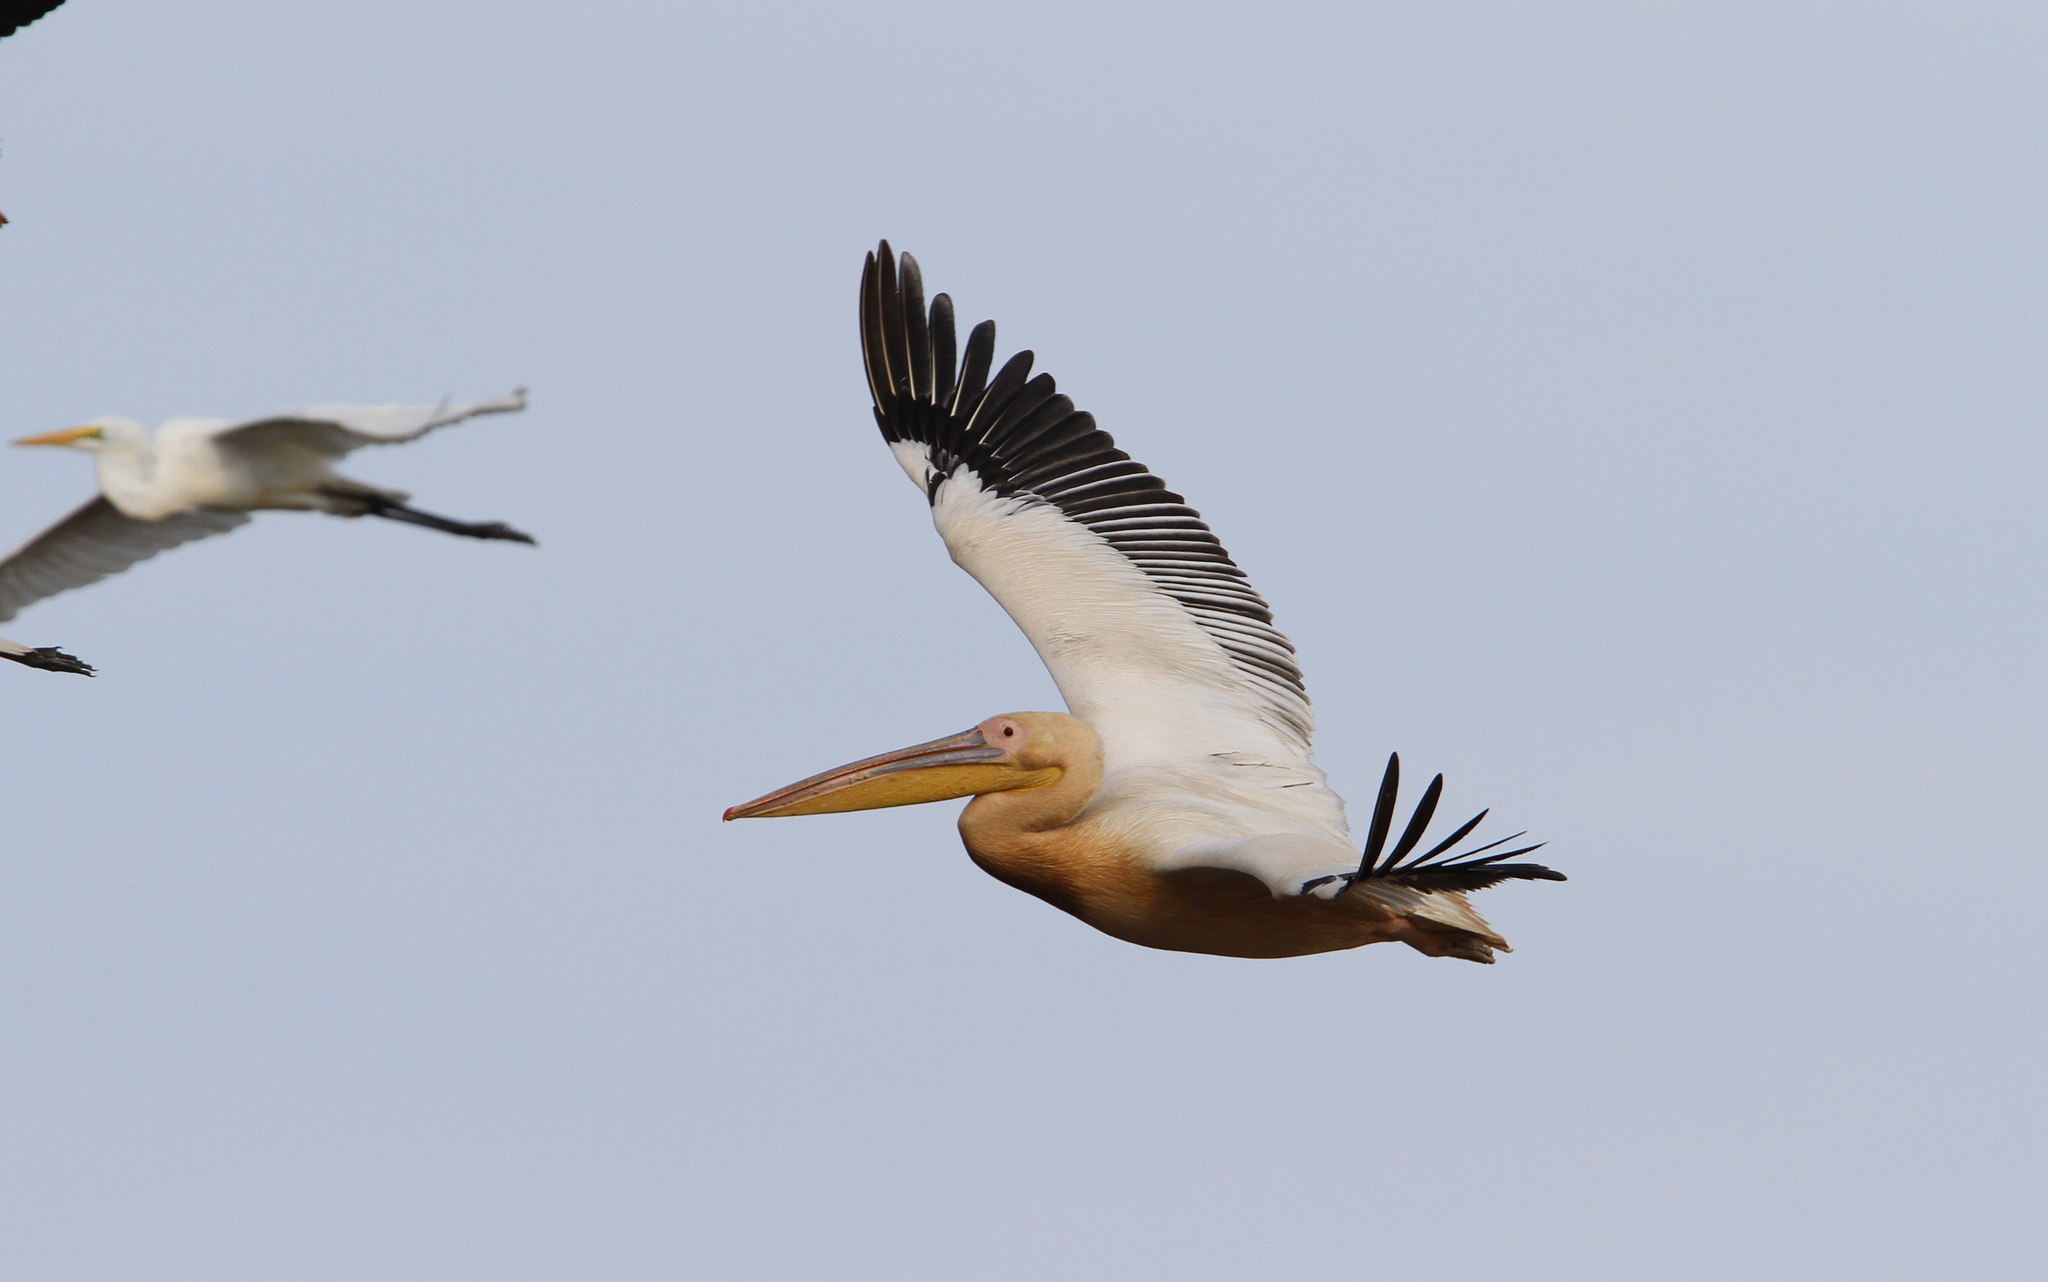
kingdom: Animalia
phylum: Chordata
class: Aves
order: Pelecaniformes
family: Pelecanidae
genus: Pelecanus
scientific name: Pelecanus onocrotalus
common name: Great white pelican
